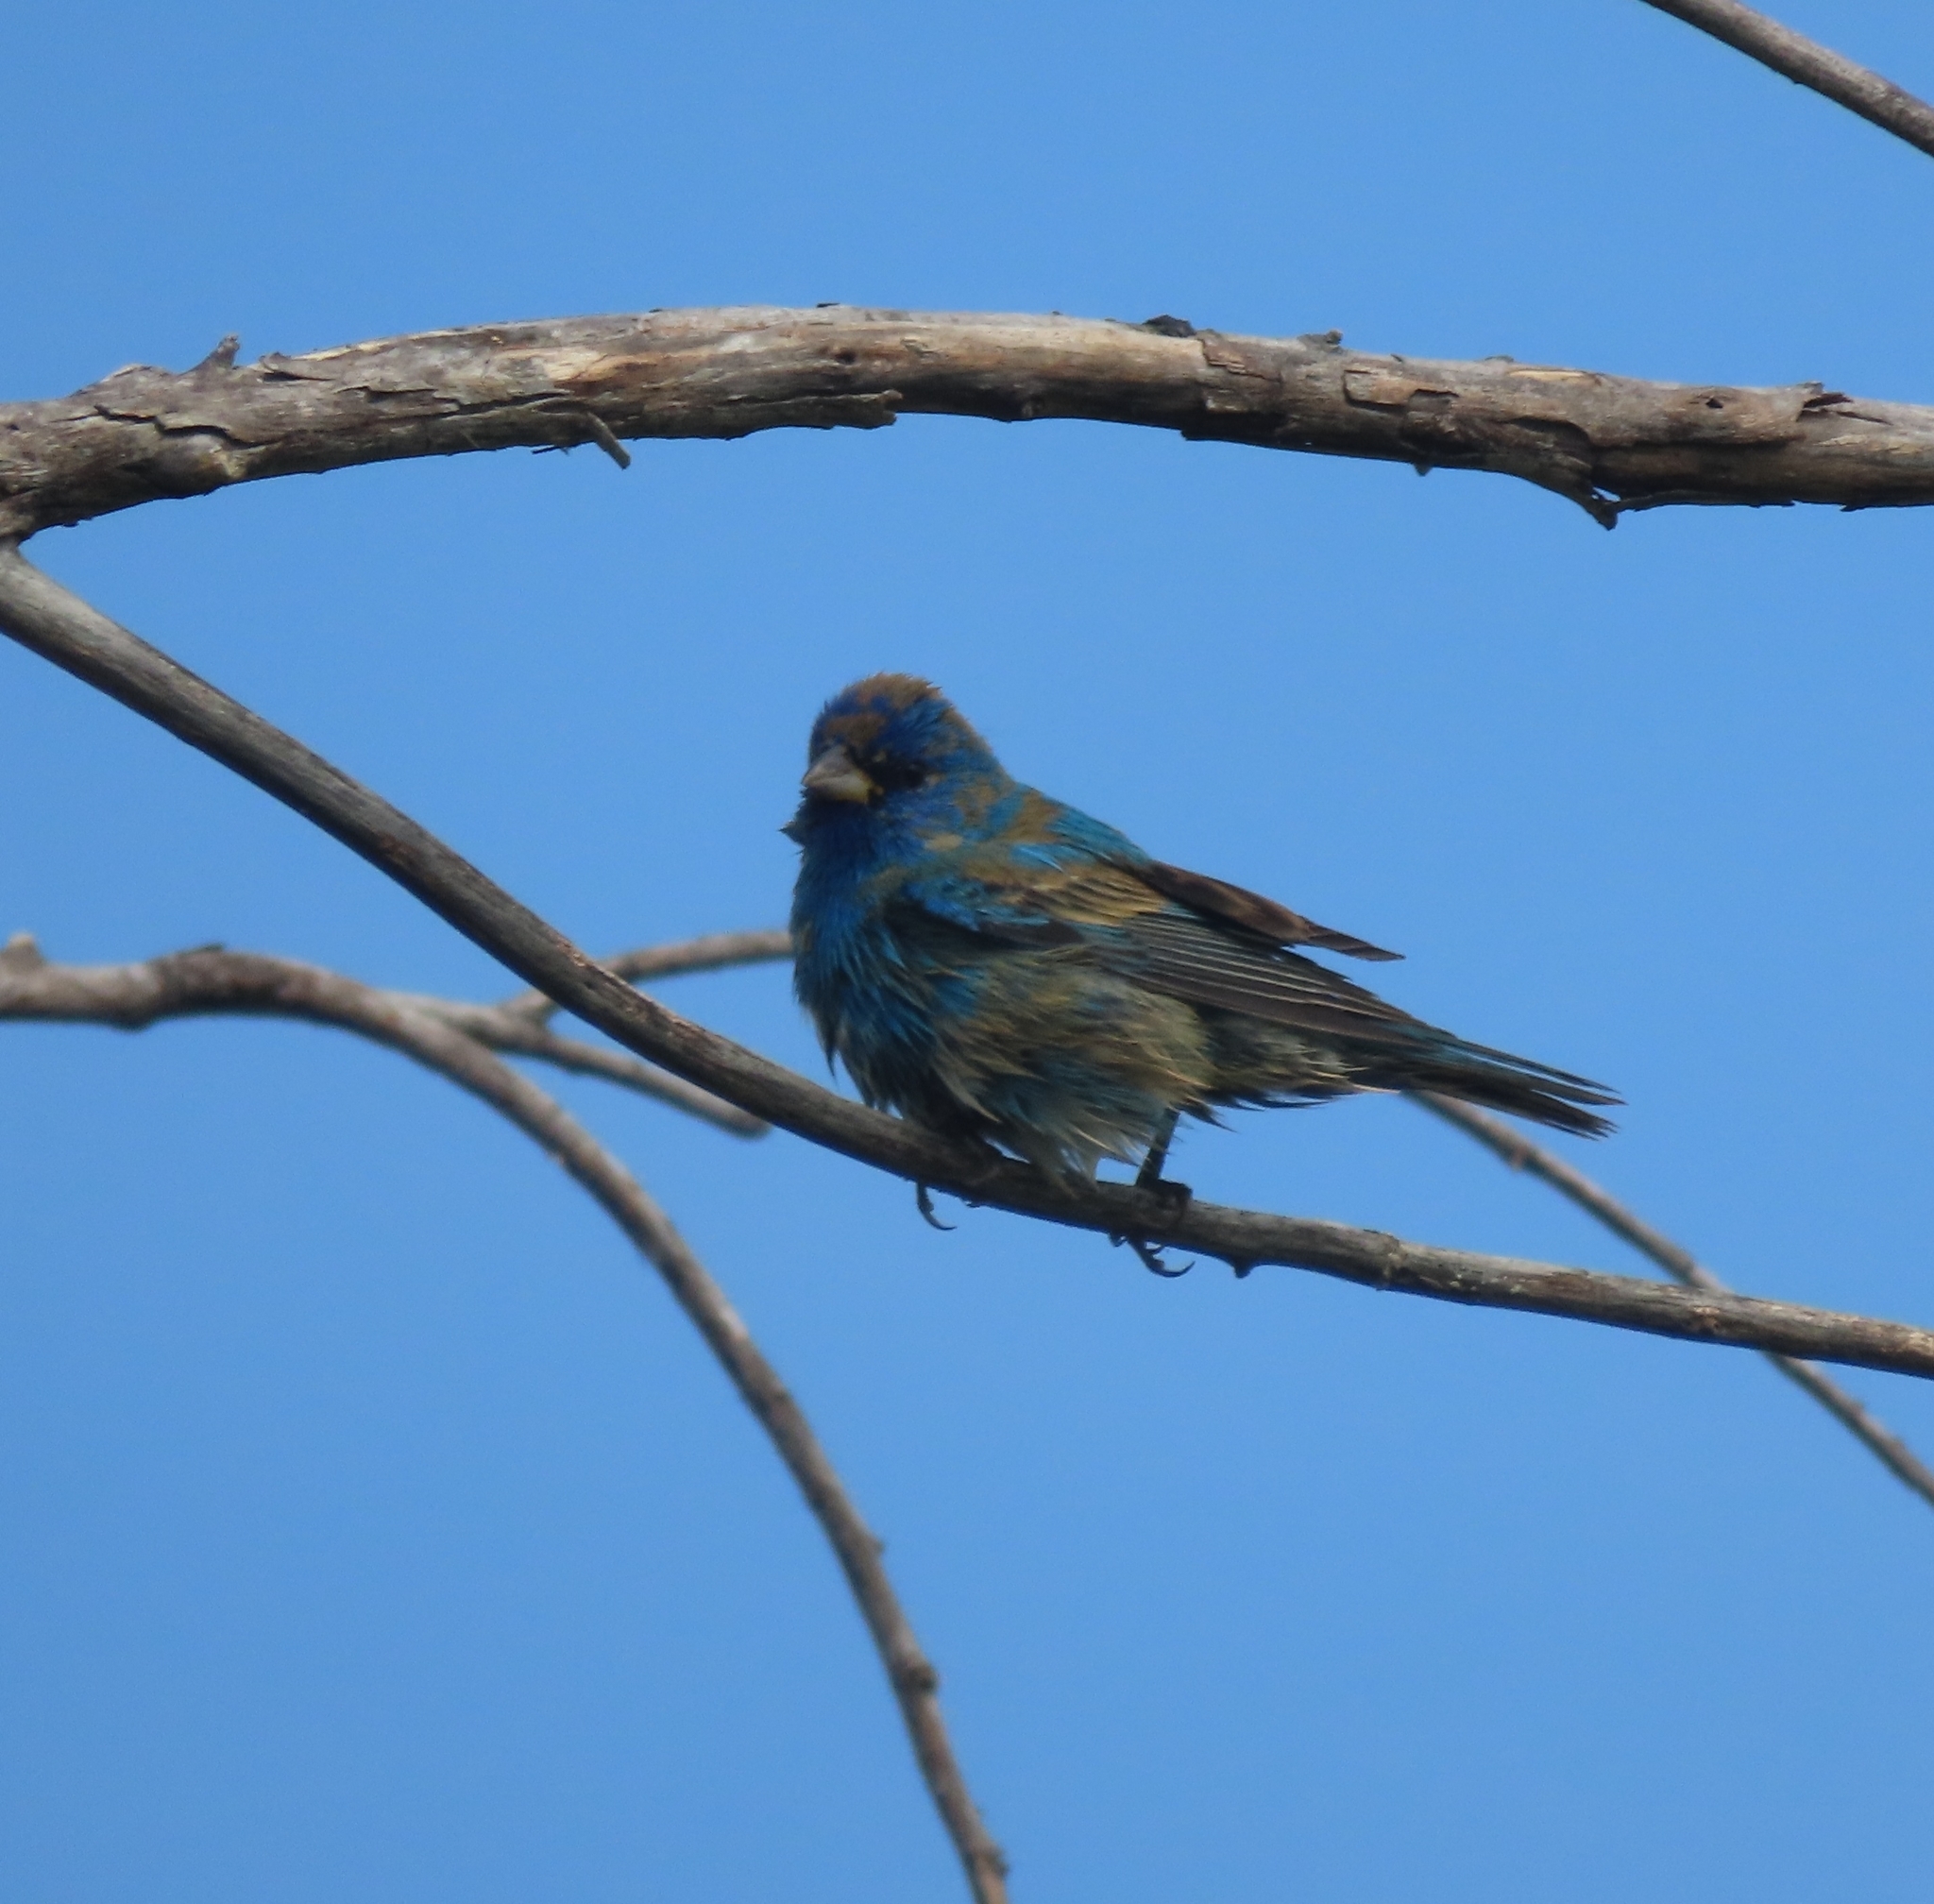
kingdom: Animalia
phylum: Chordata
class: Aves
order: Passeriformes
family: Cardinalidae
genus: Passerina
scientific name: Passerina cyanea
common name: Indigo bunting
